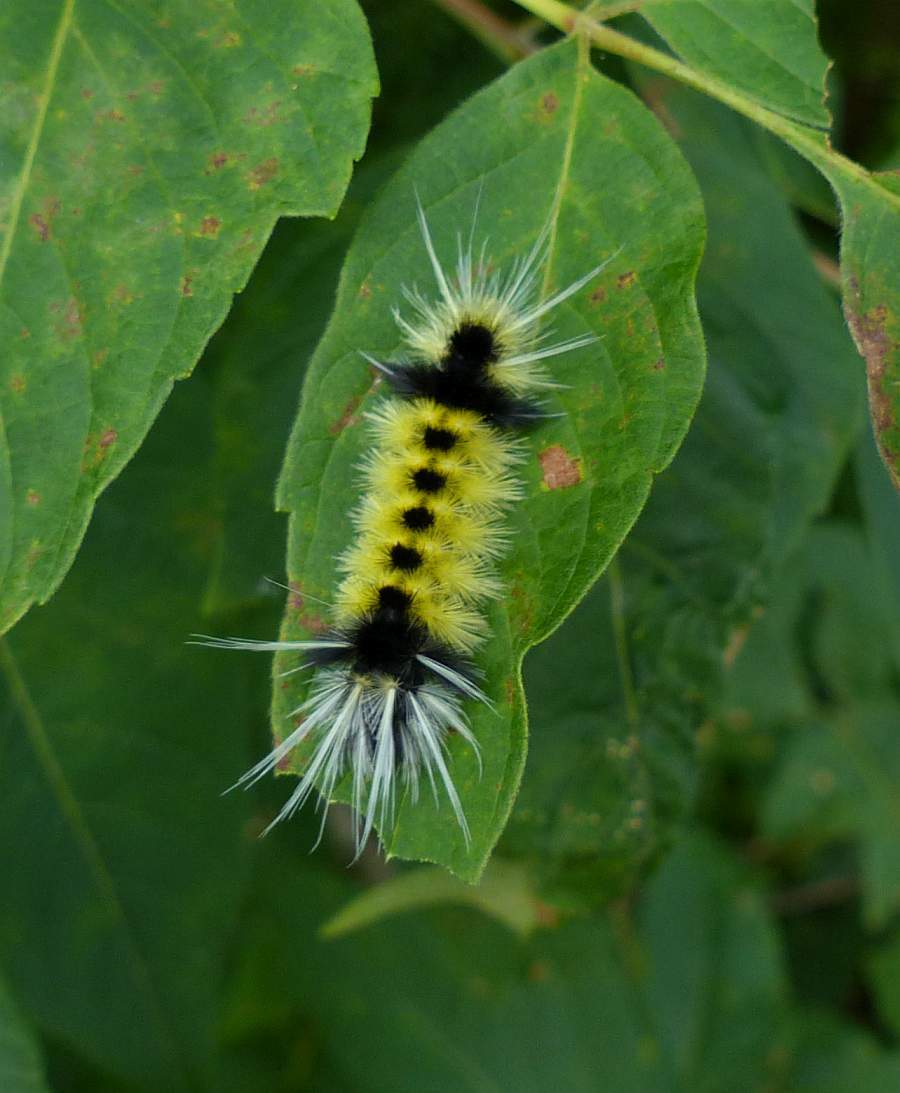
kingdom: Animalia
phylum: Arthropoda
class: Insecta
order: Lepidoptera
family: Erebidae
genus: Lophocampa
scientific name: Lophocampa maculata
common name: Spotted tussock moth
